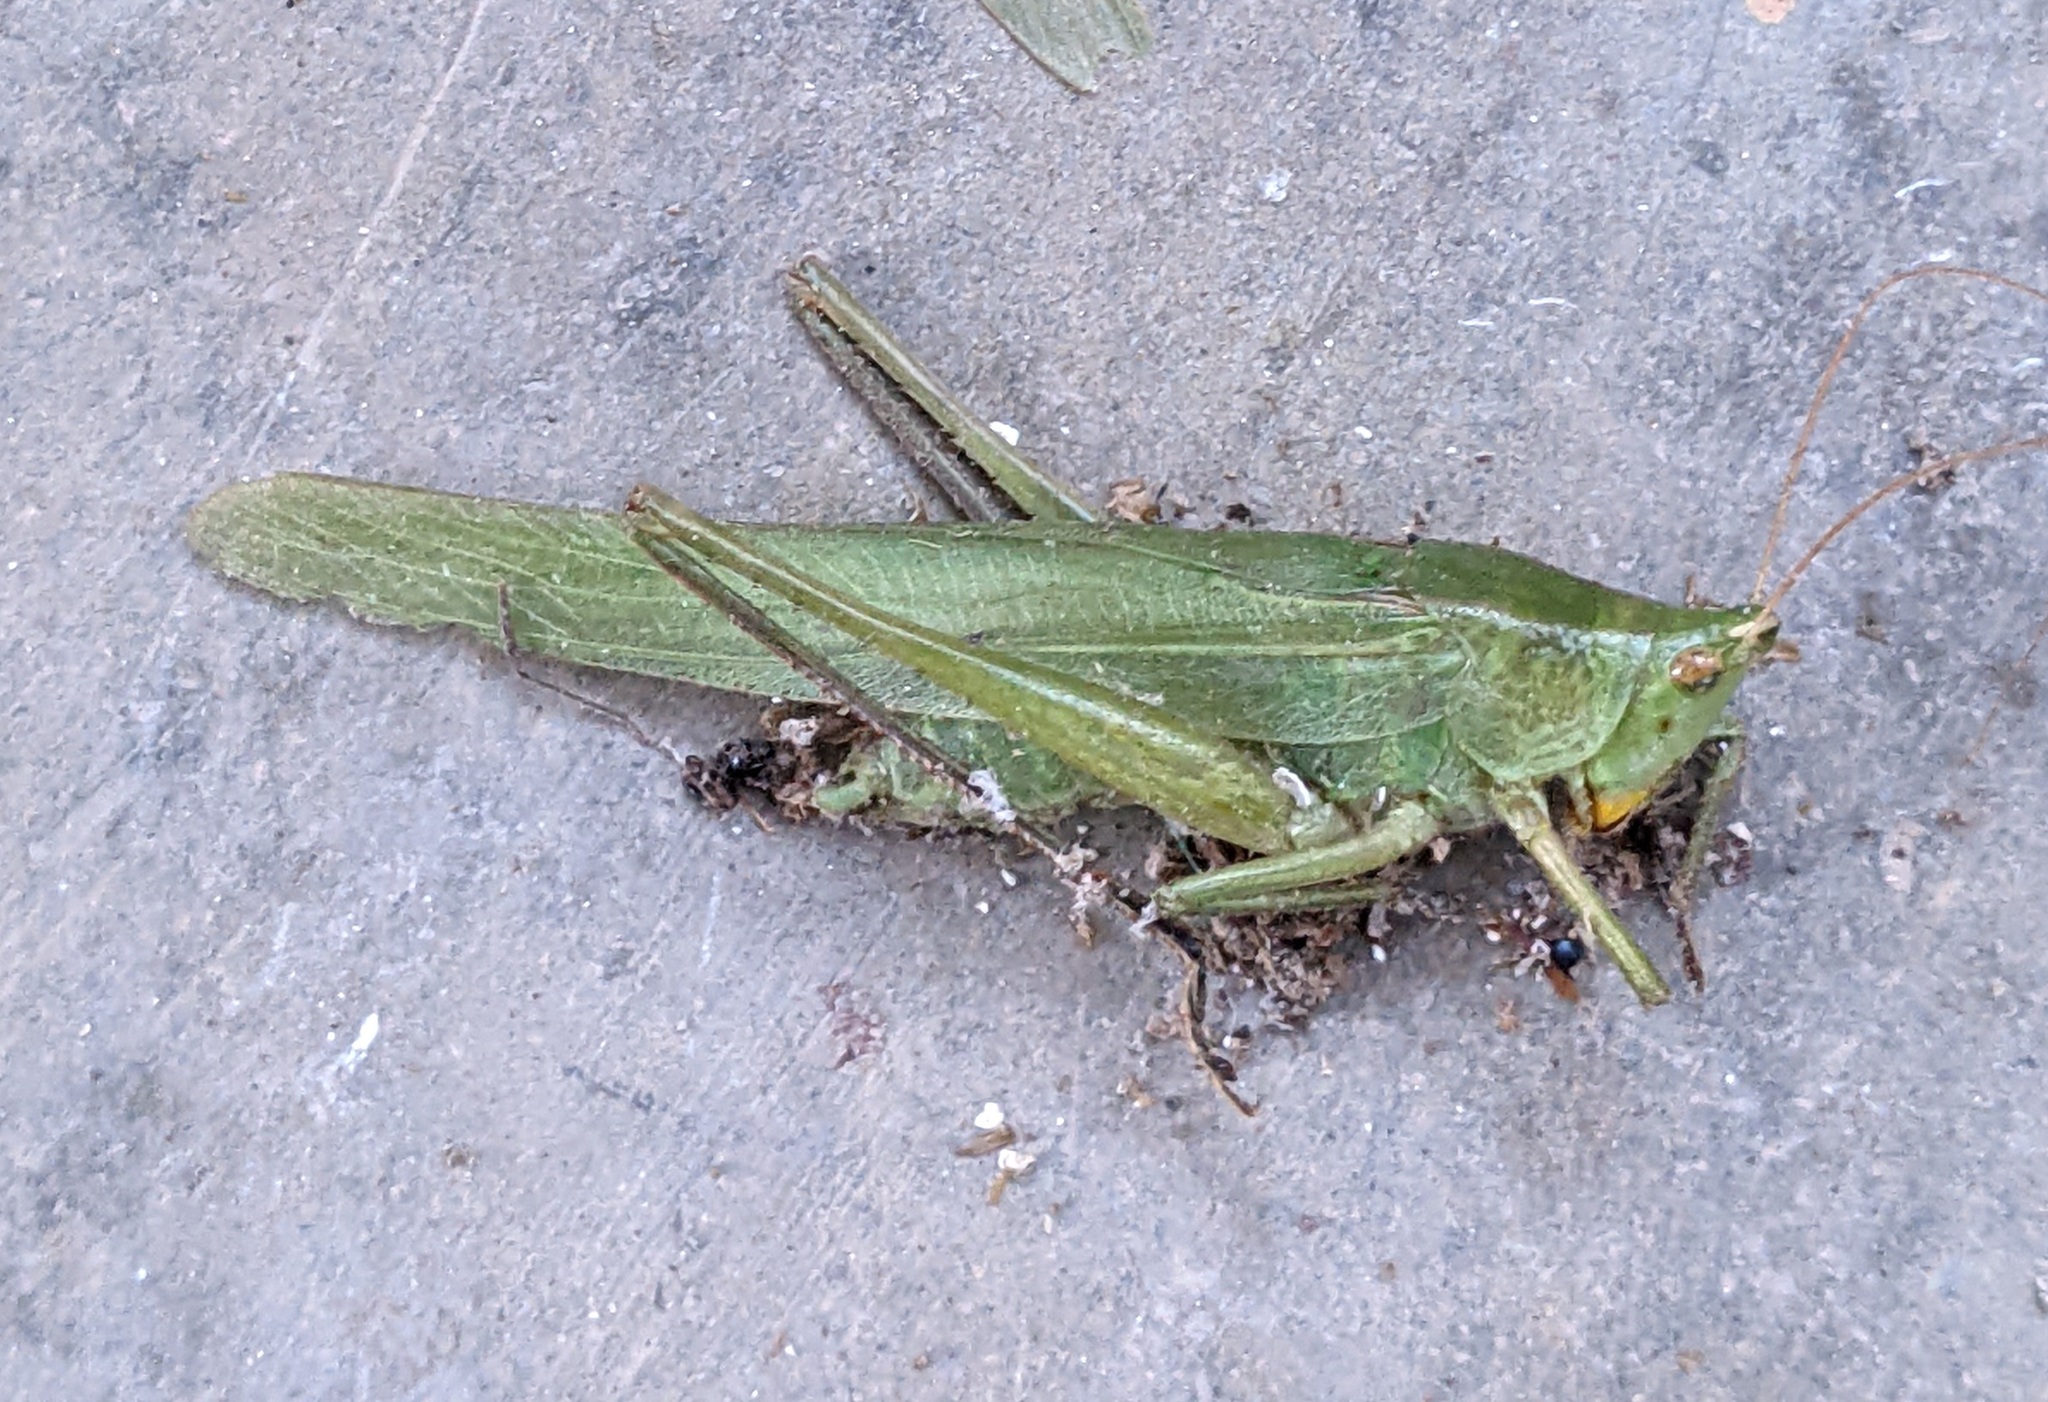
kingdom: Animalia
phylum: Arthropoda
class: Insecta
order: Orthoptera
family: Tettigoniidae
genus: Neoconocephalus
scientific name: Neoconocephalus triops
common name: Broad-tipped conehead
